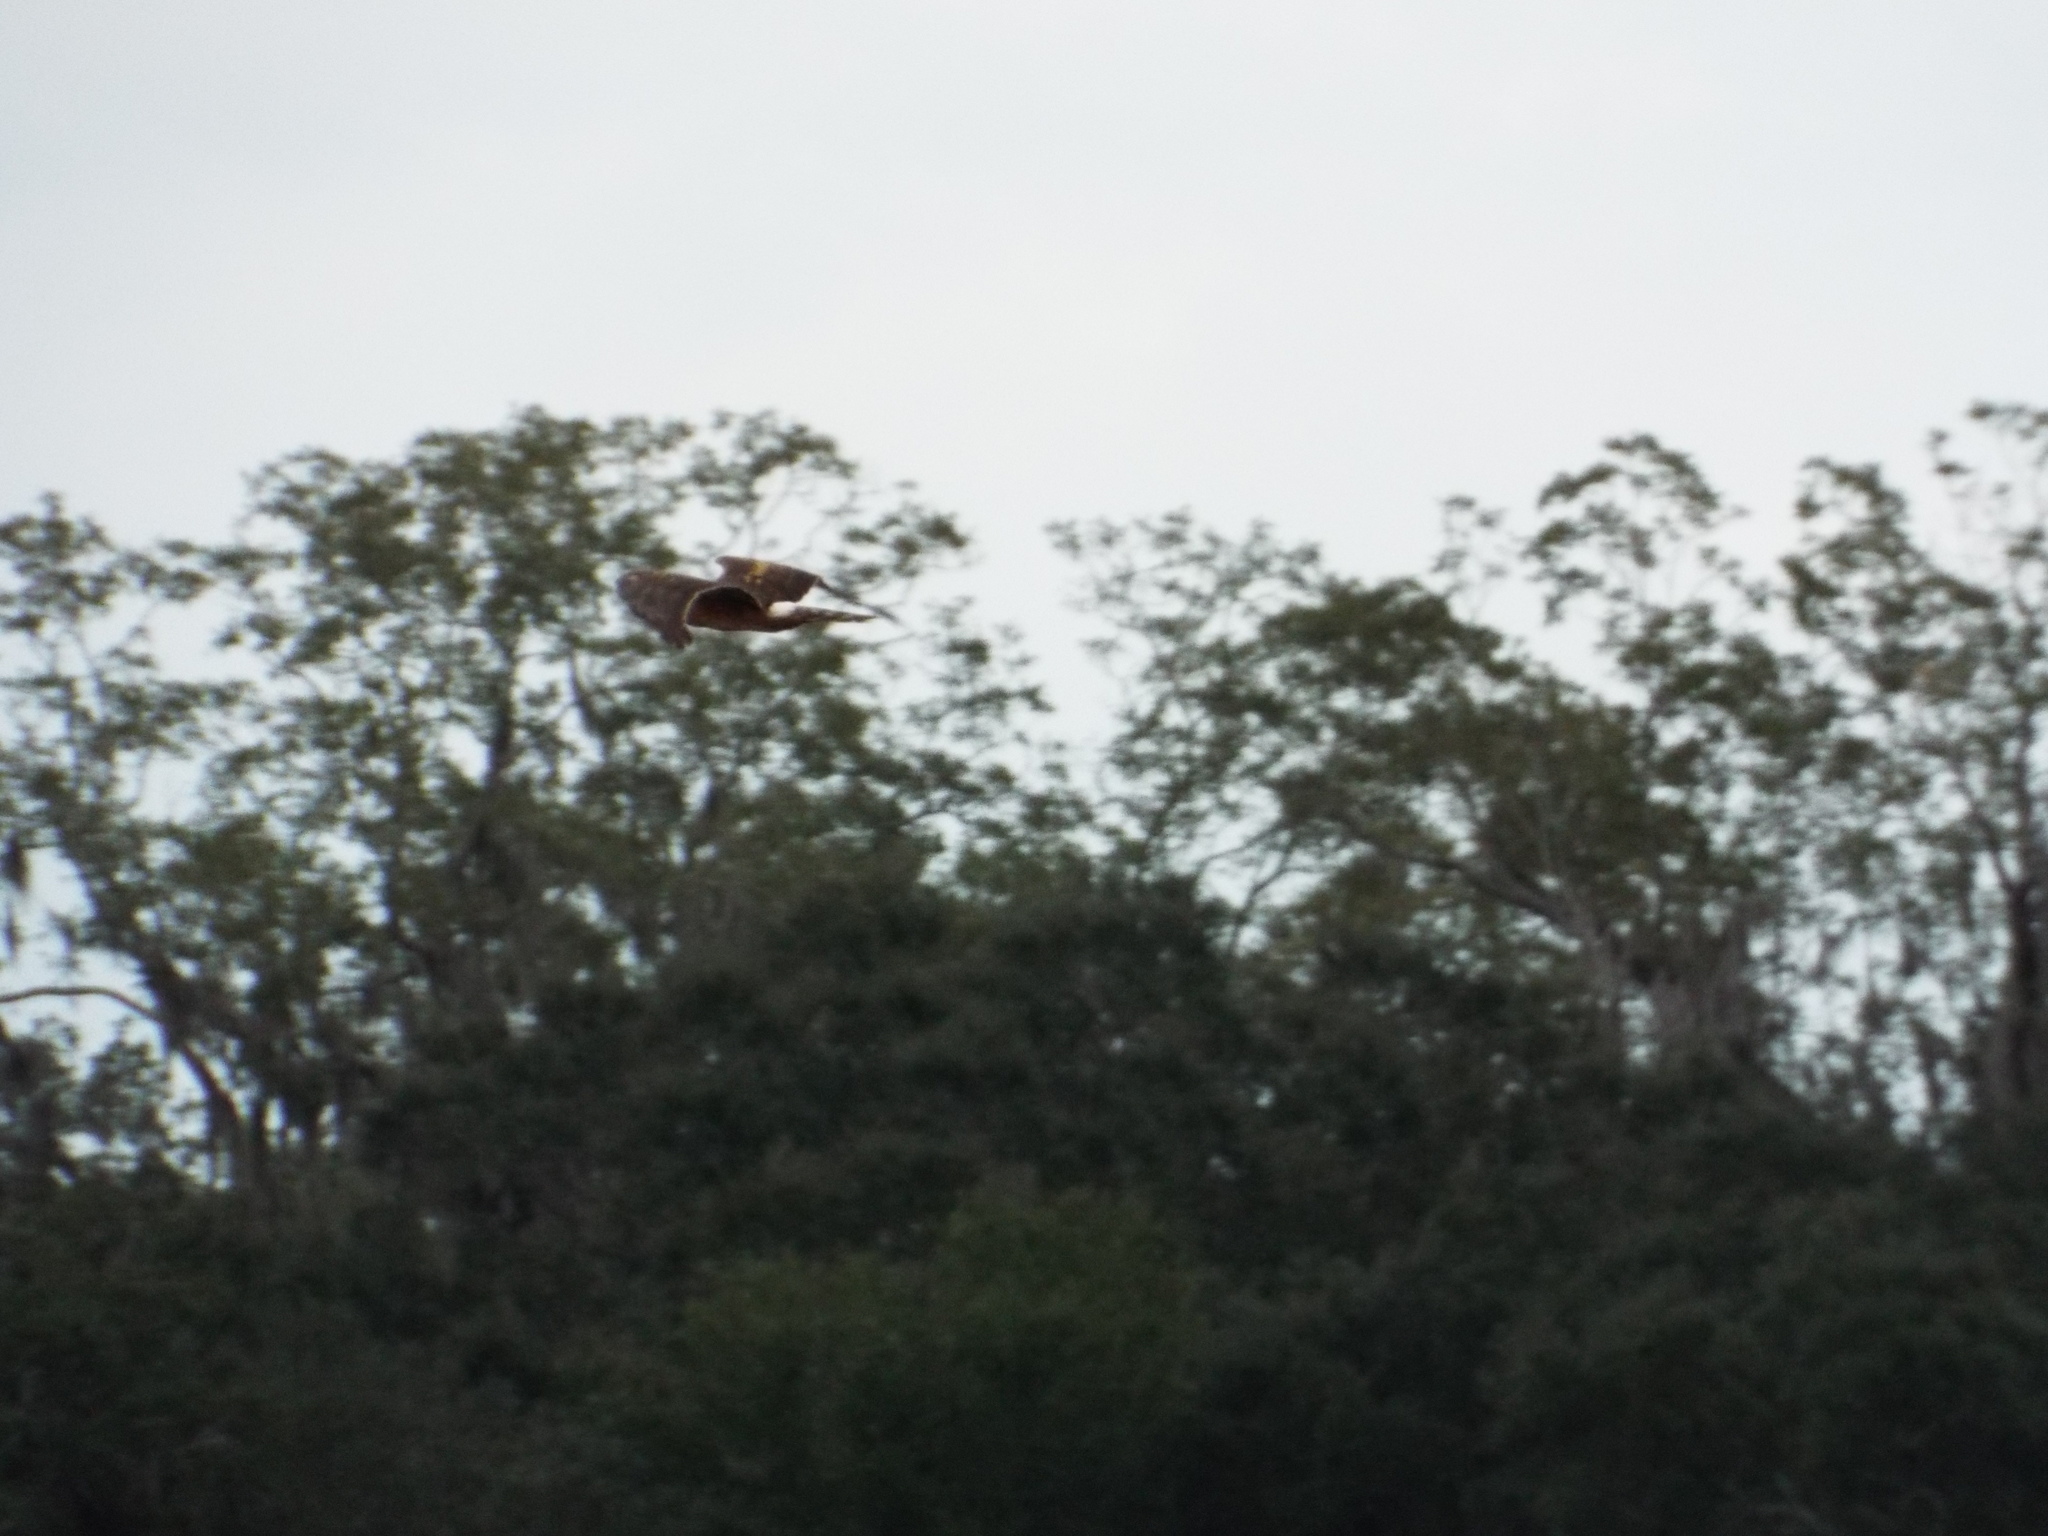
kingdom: Animalia
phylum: Chordata
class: Aves
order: Accipitriformes
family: Accipitridae
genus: Circus
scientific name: Circus cyaneus
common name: Hen harrier
